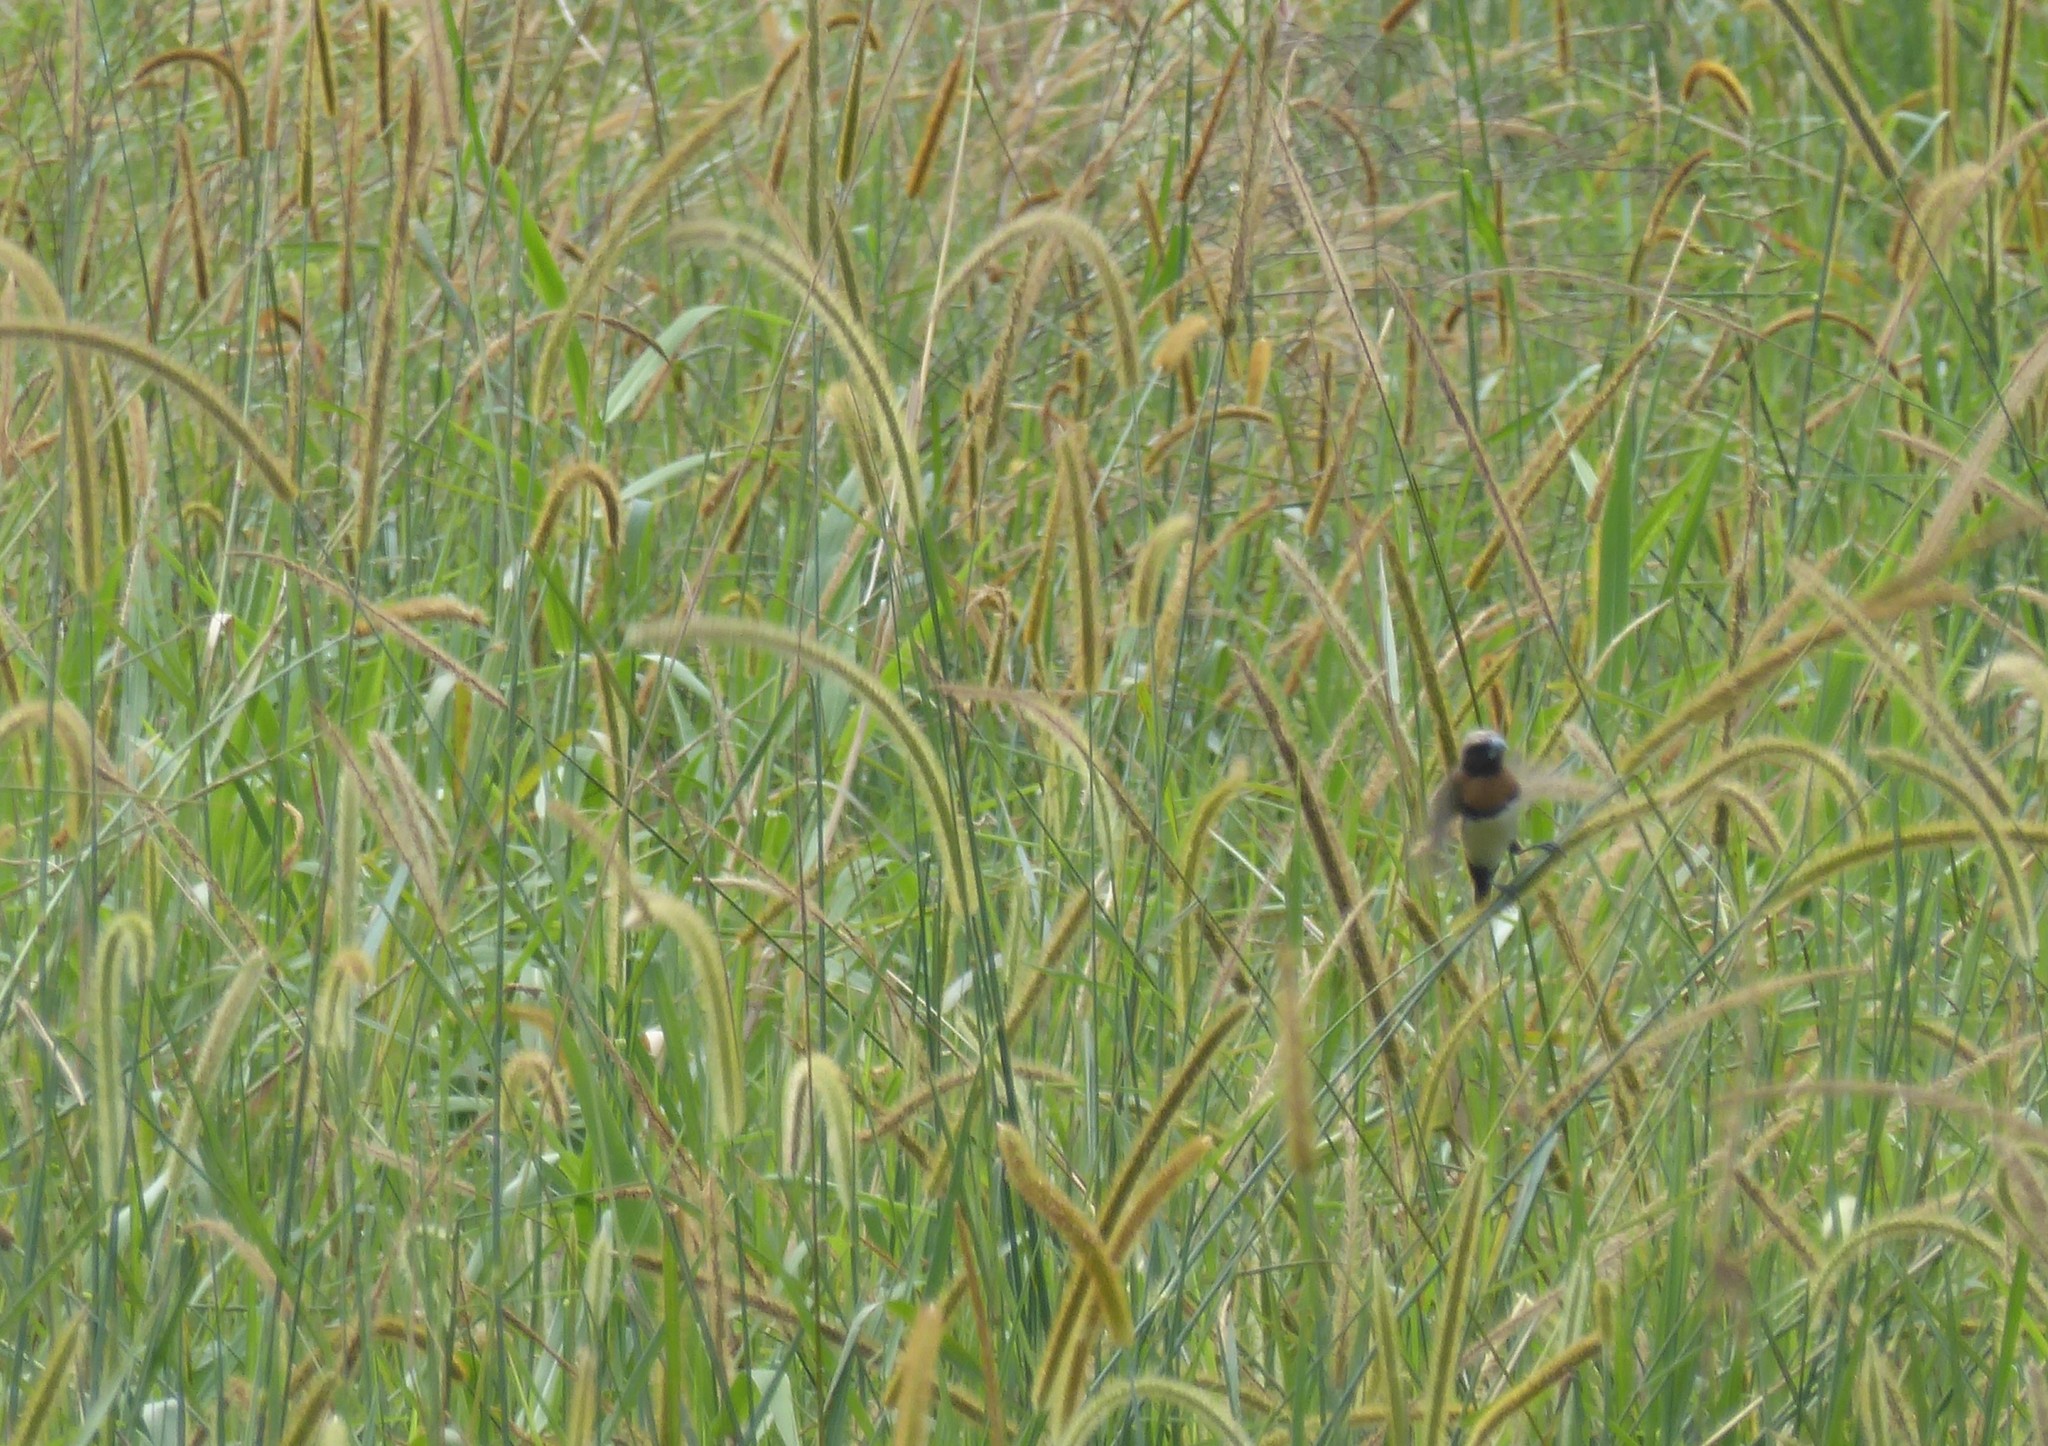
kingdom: Animalia
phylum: Chordata
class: Aves
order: Passeriformes
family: Estrildidae
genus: Lonchura
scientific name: Lonchura castaneothorax
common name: Chestnut-breasted mannikin
